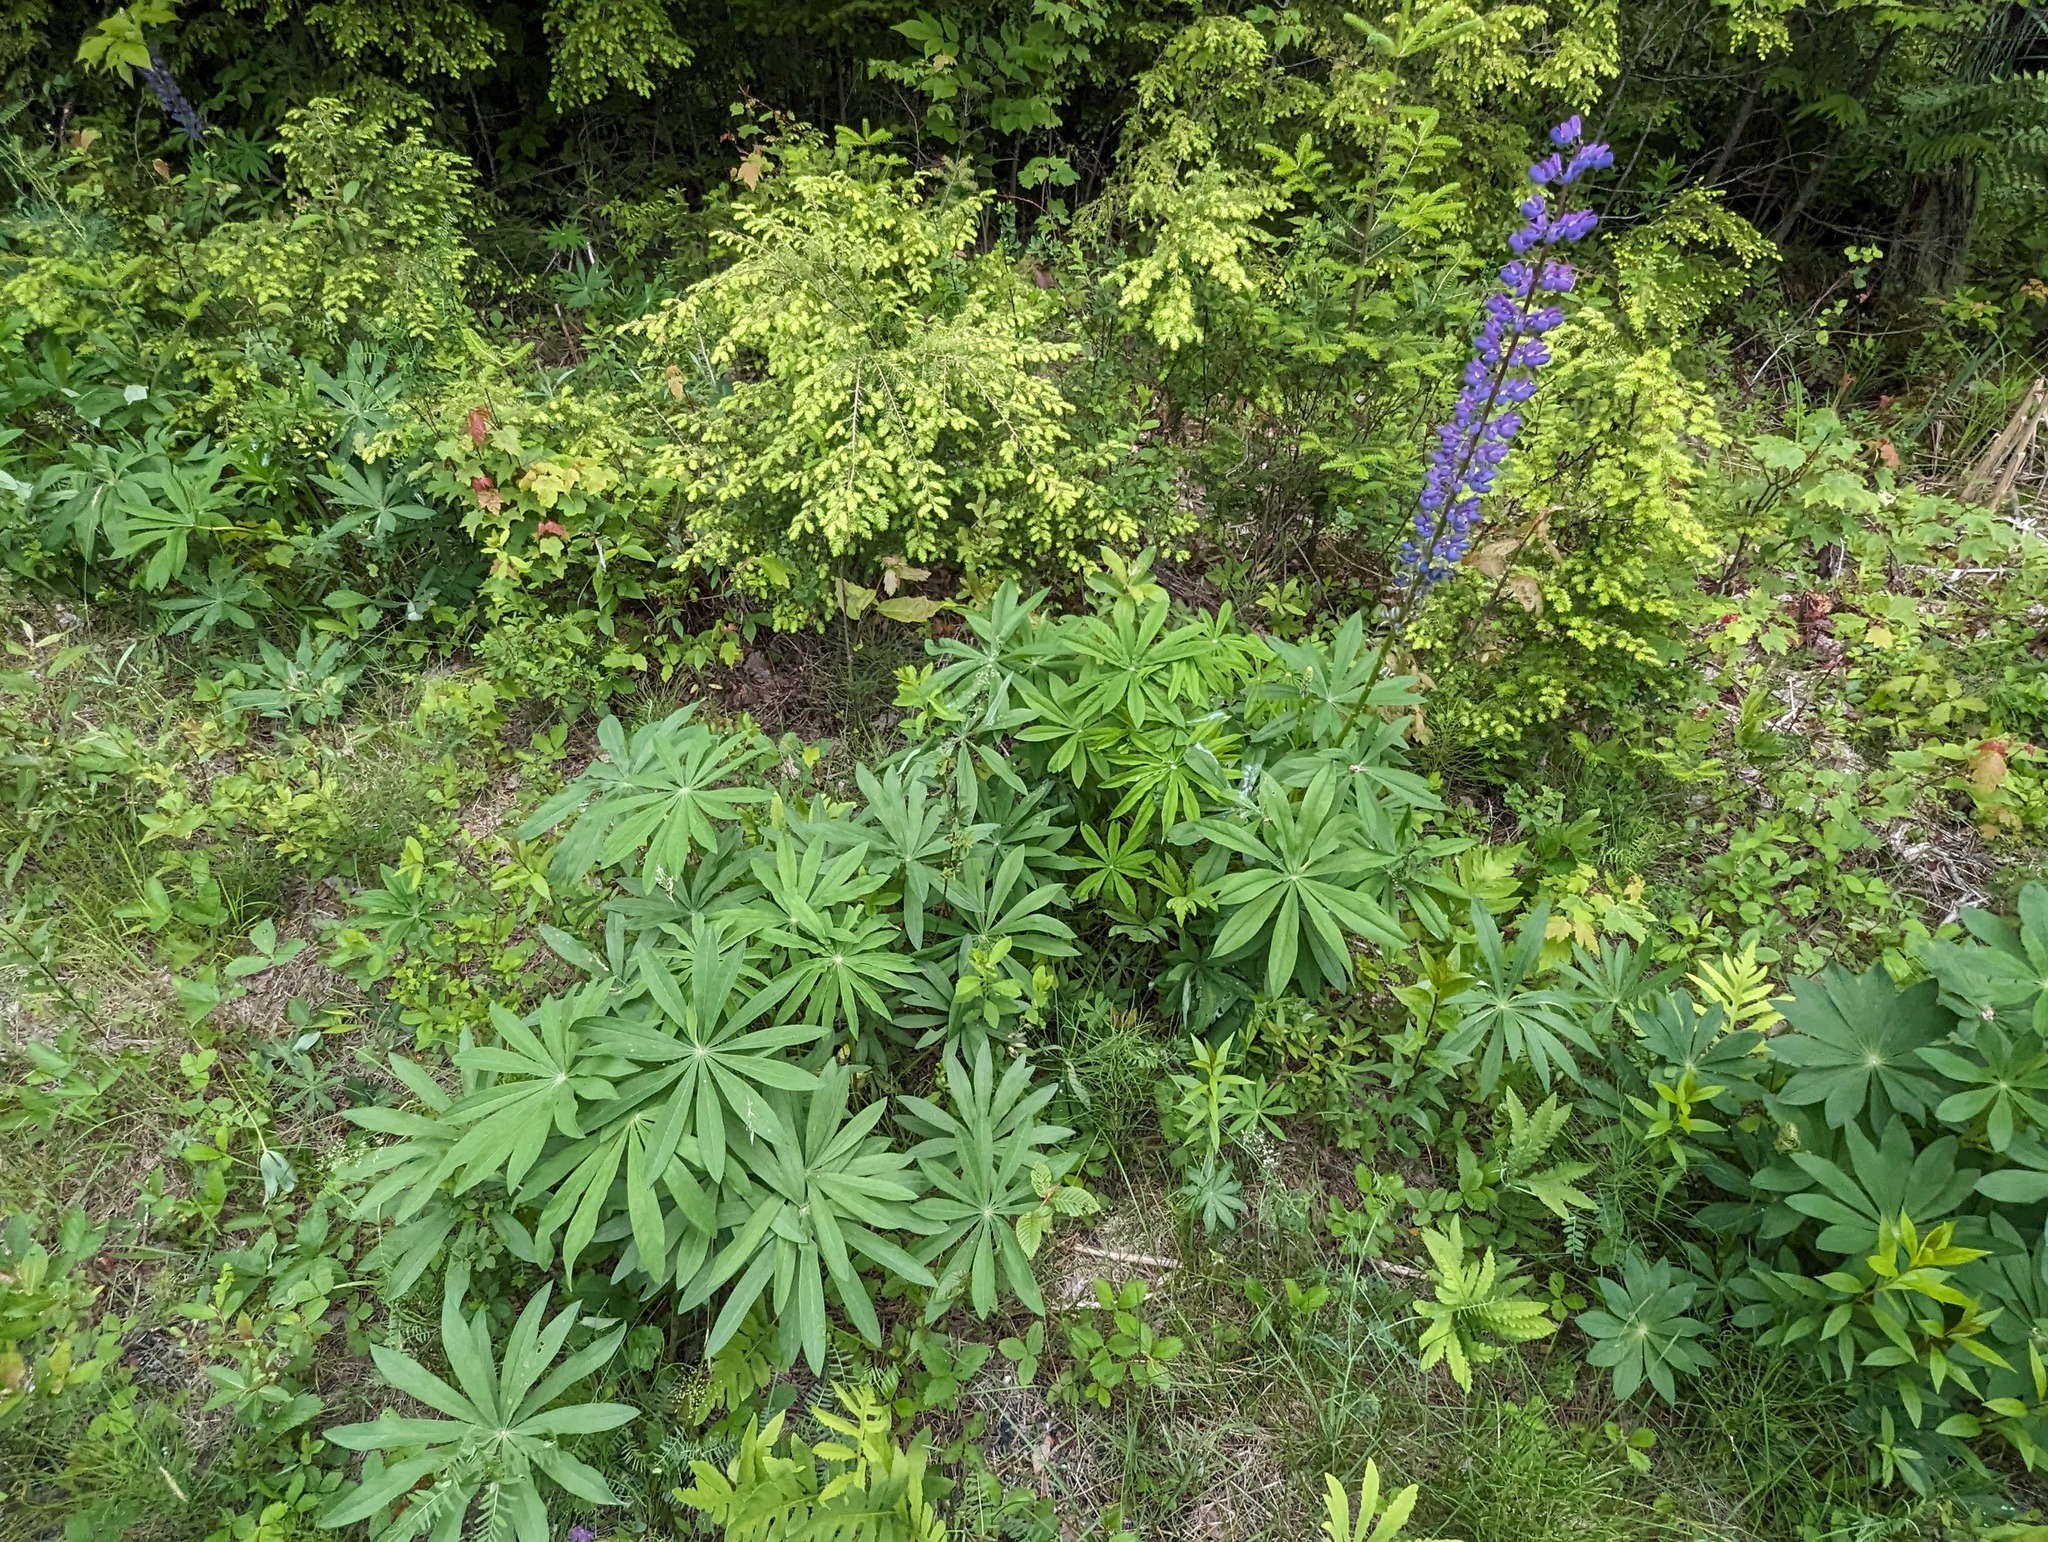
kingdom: Plantae
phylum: Tracheophyta
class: Pinopsida
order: Pinales
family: Pinaceae
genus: Tsuga
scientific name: Tsuga canadensis
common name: Eastern hemlock
